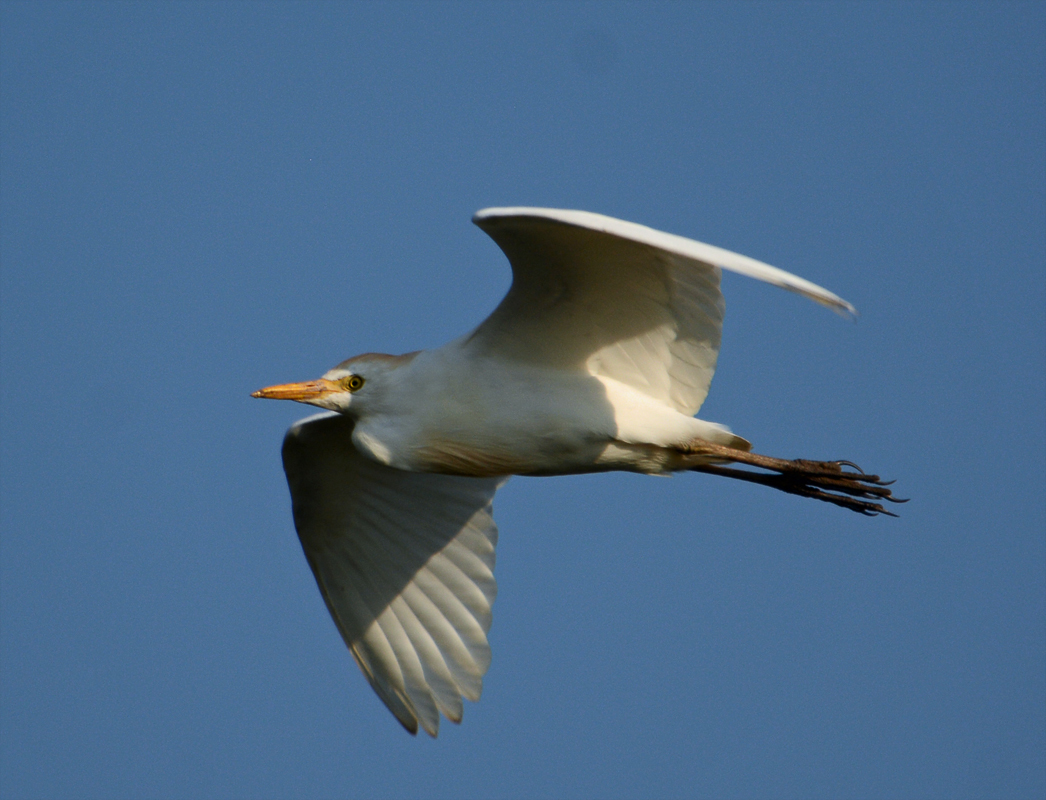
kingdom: Animalia
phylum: Chordata
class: Aves
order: Pelecaniformes
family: Ardeidae
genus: Bubulcus
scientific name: Bubulcus ibis
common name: Cattle egret
